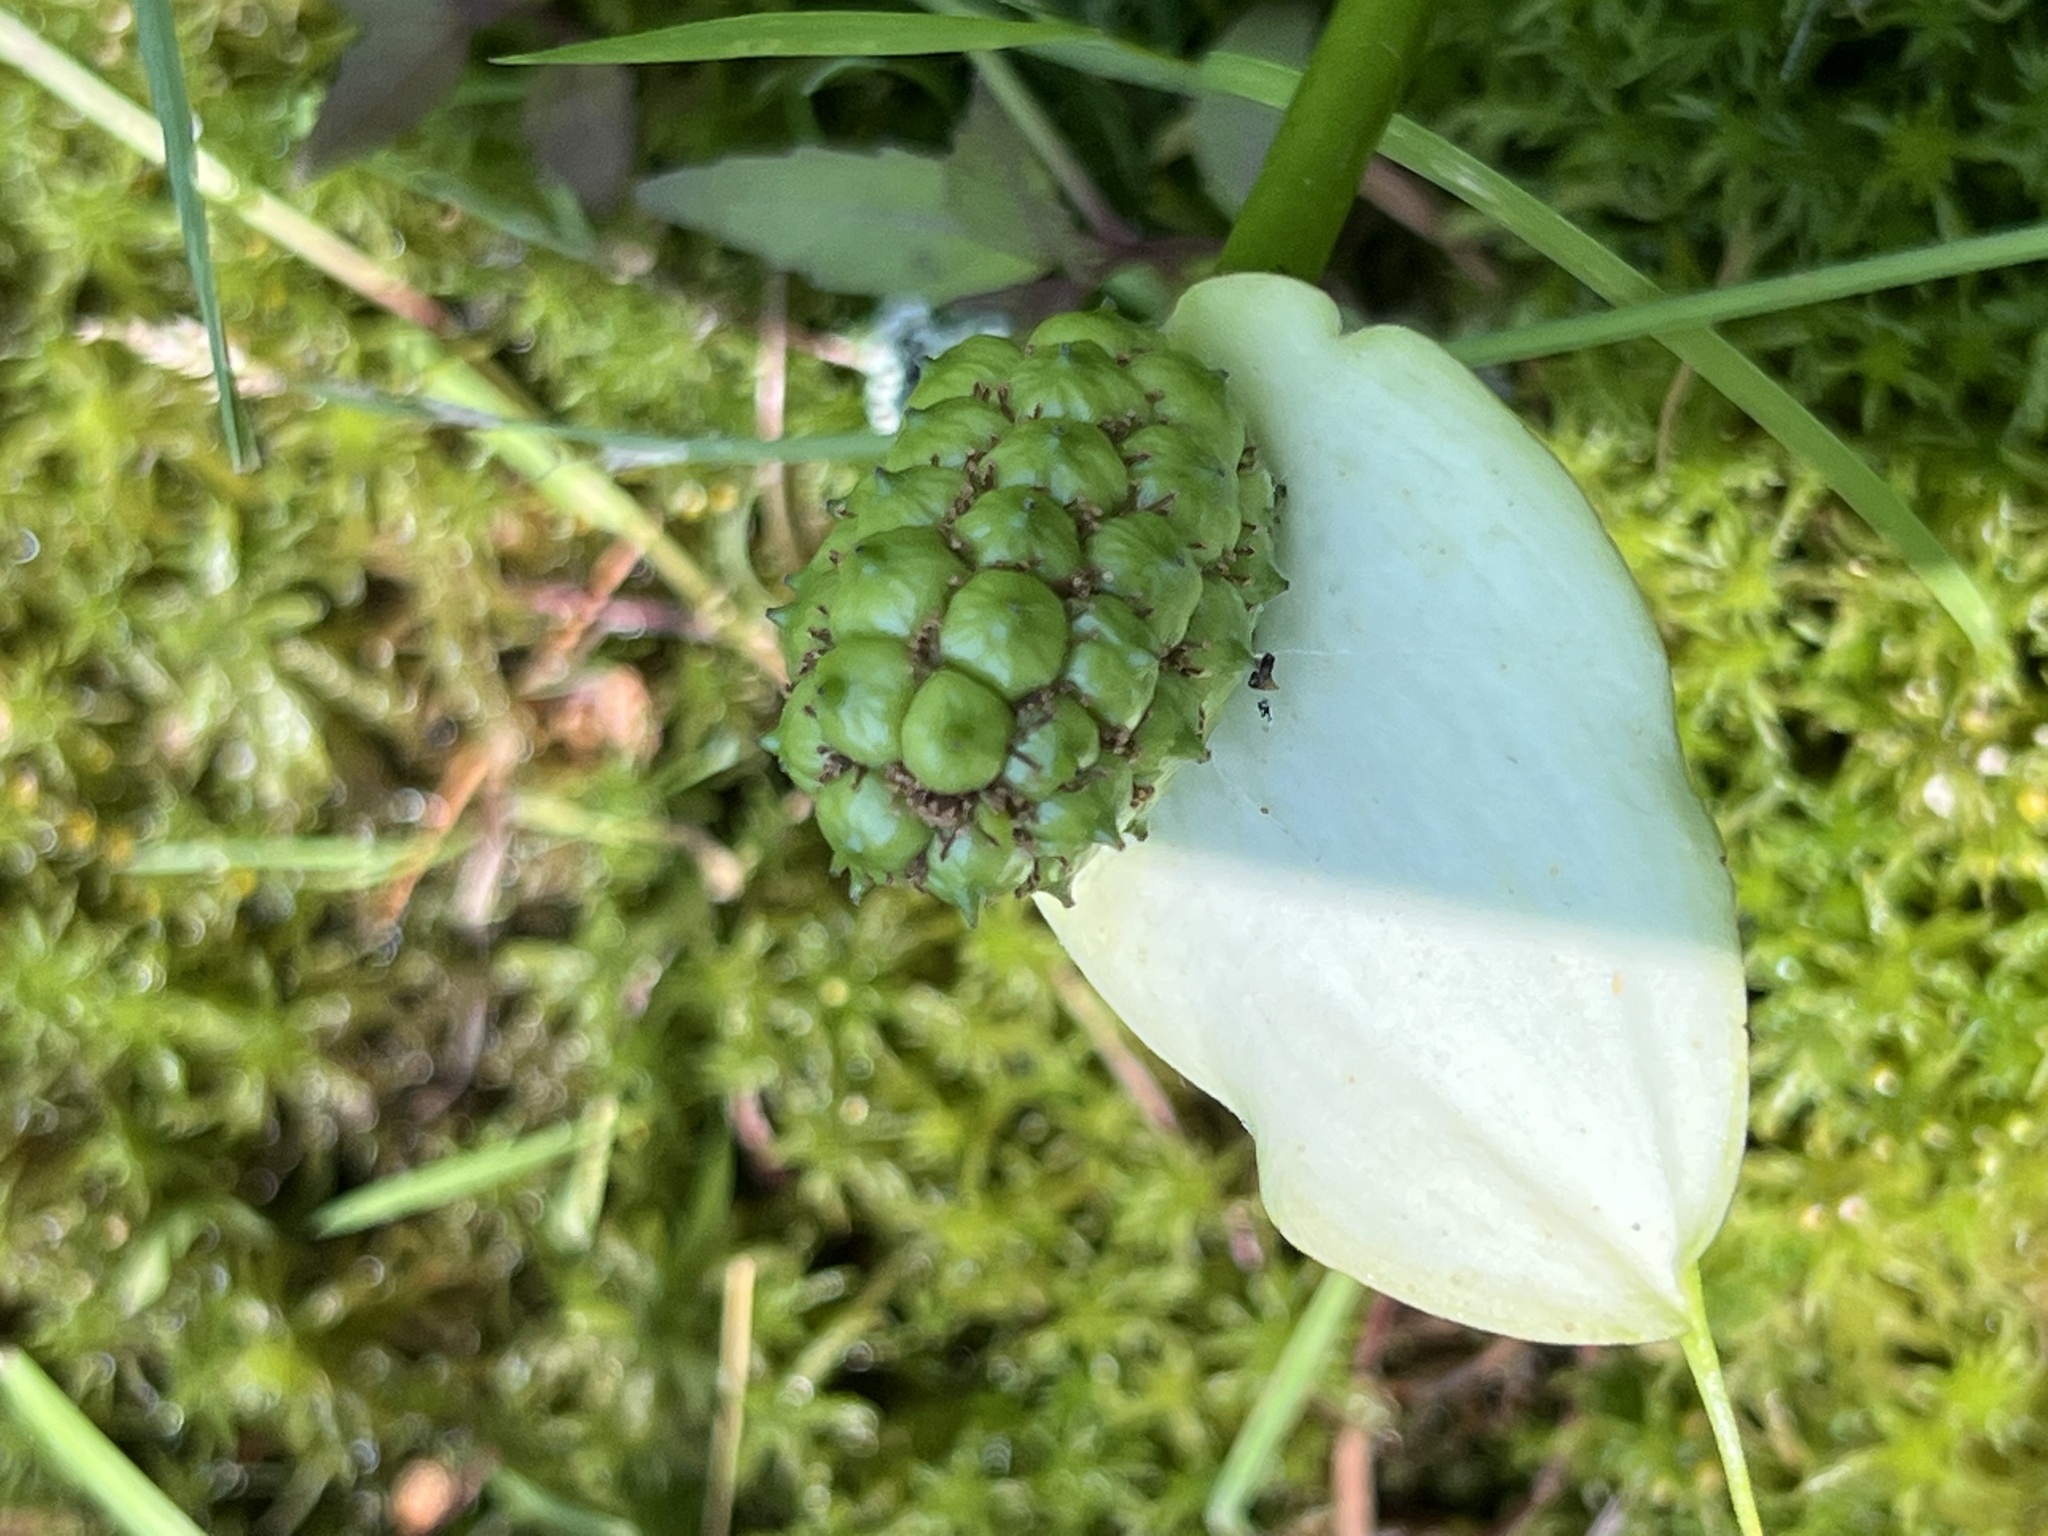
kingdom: Plantae
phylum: Tracheophyta
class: Liliopsida
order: Alismatales
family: Araceae
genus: Calla
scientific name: Calla palustris
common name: Bog arum
